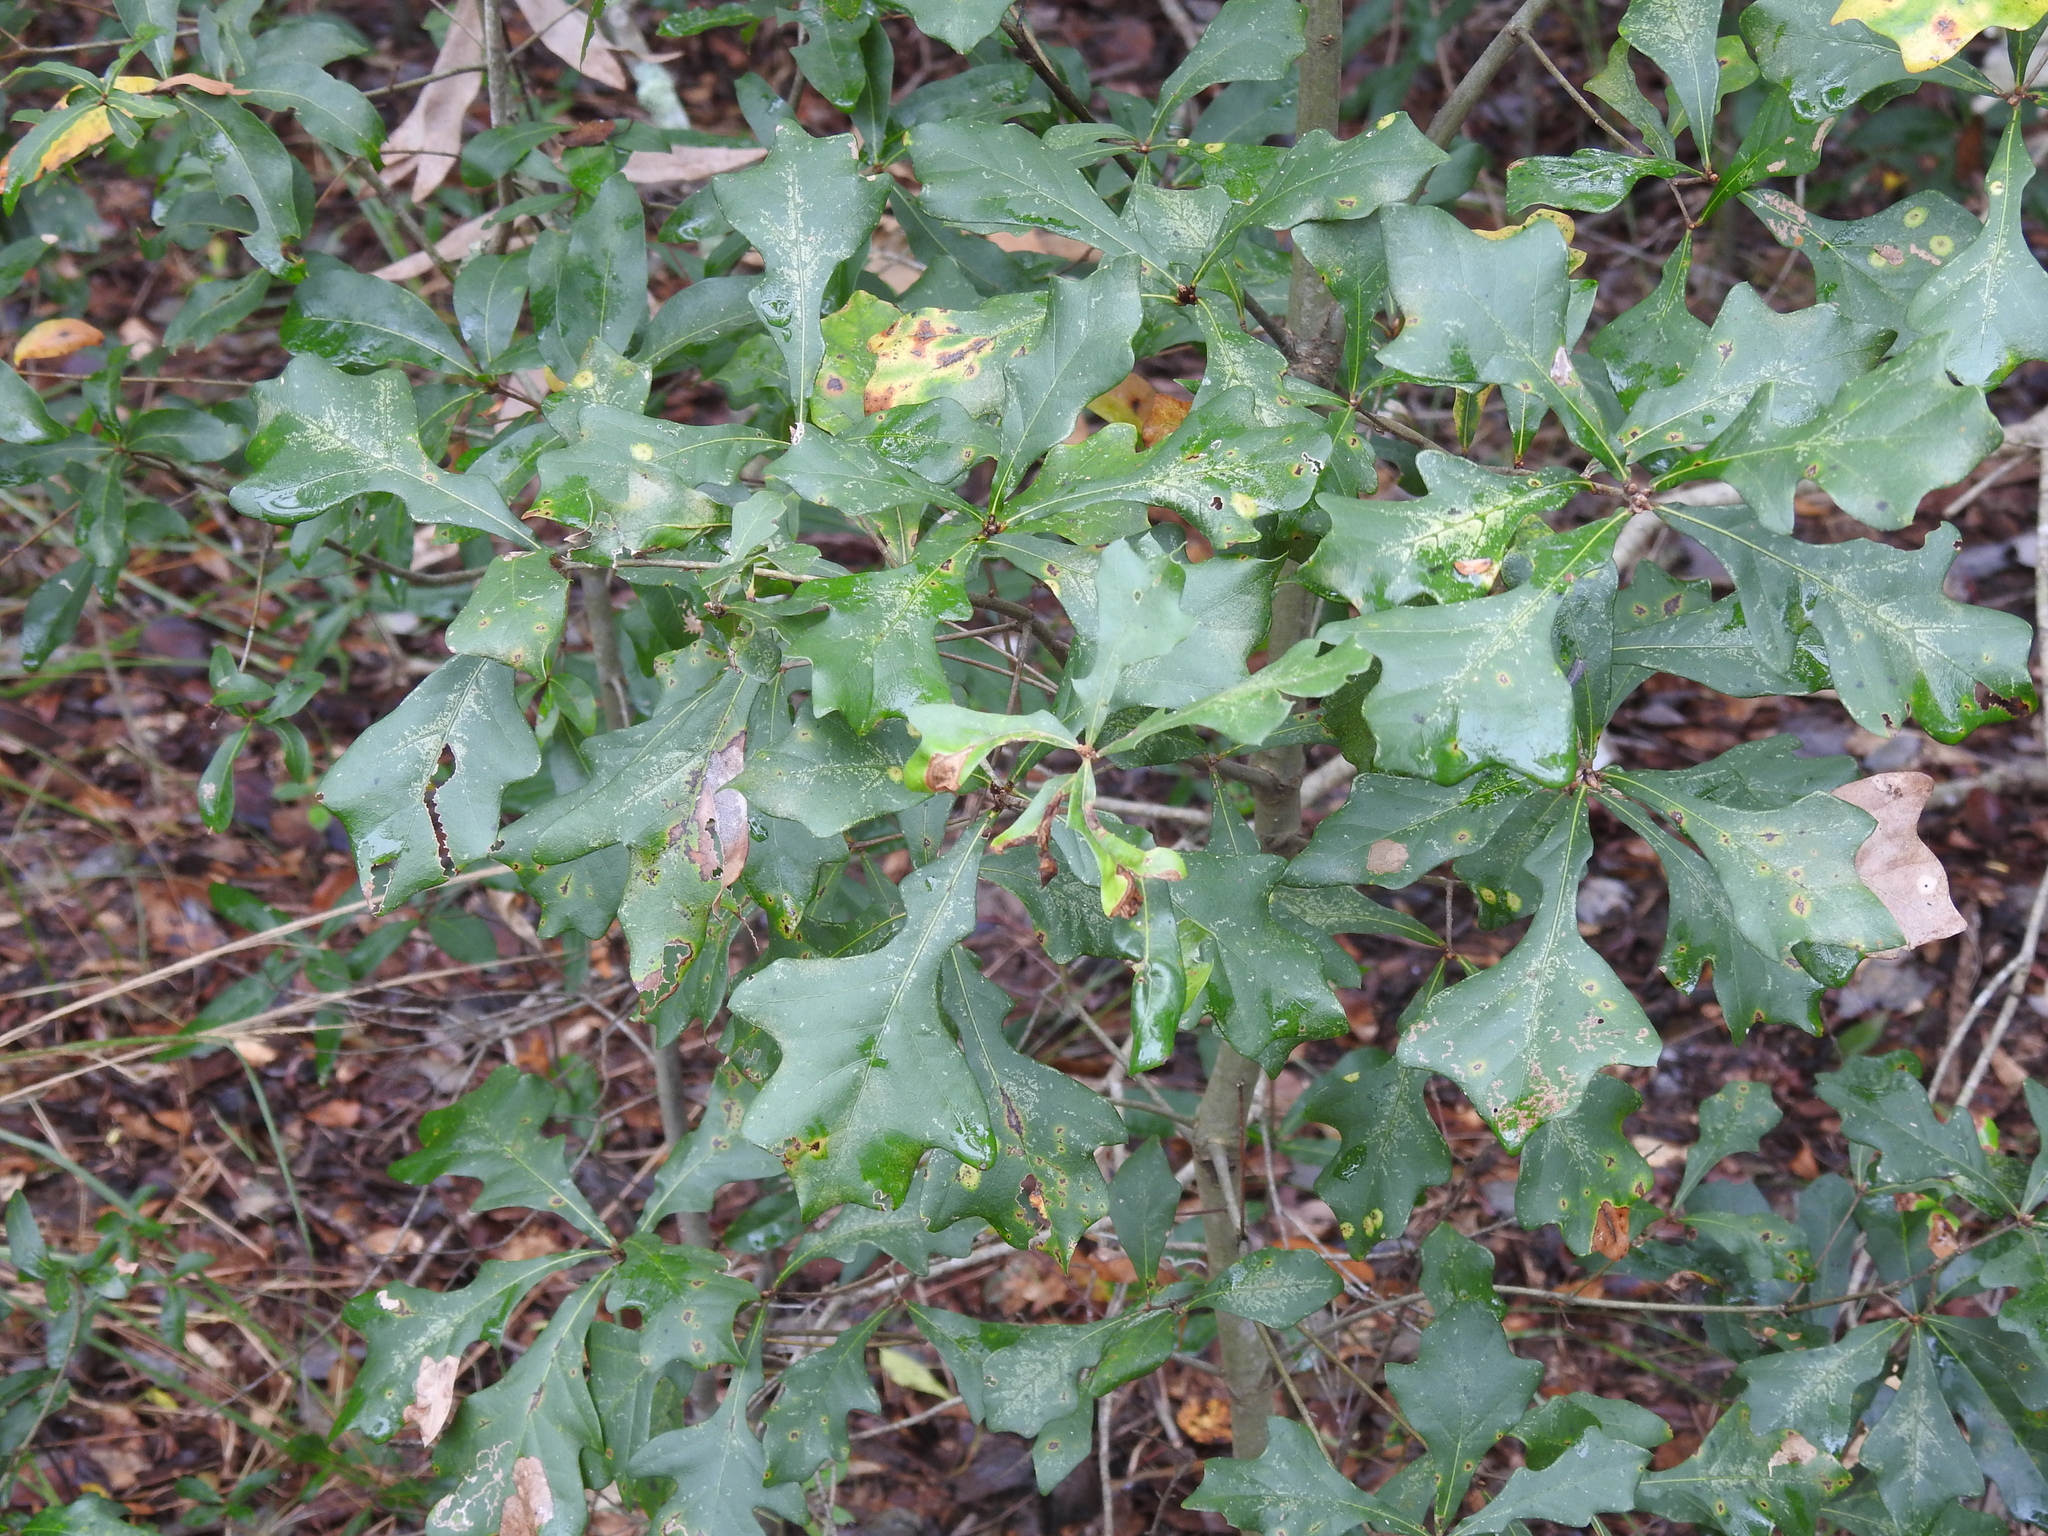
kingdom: Plantae
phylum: Tracheophyta
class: Magnoliopsida
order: Fagales
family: Fagaceae
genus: Quercus
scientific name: Quercus nigra
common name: Water oak
